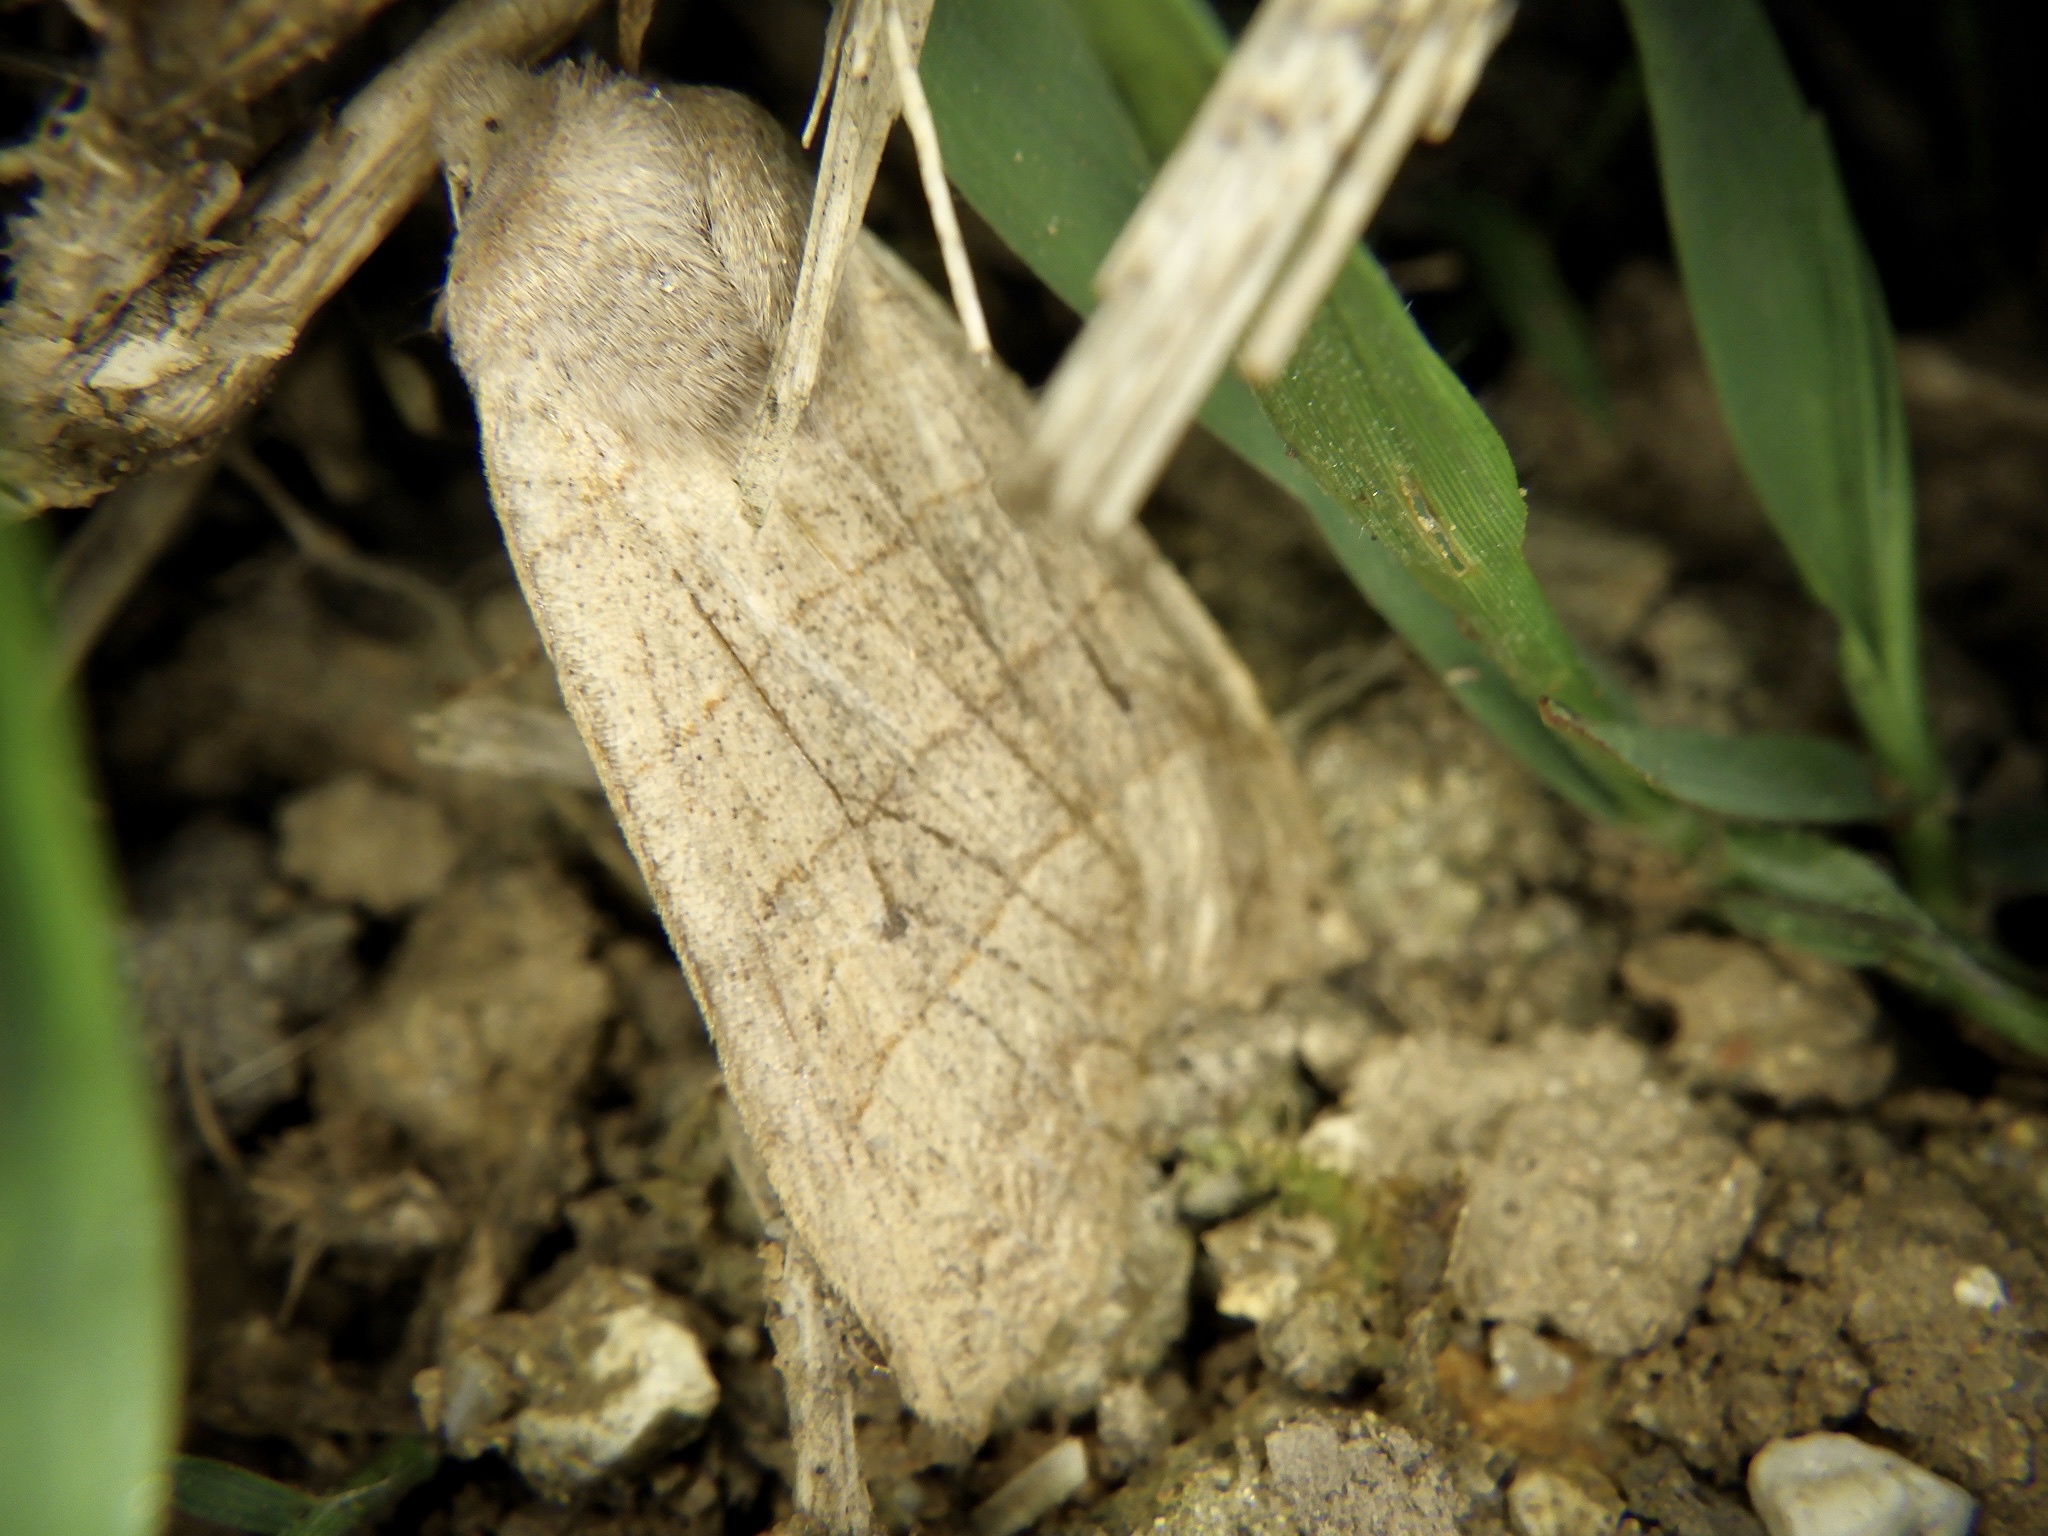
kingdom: Animalia
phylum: Arthropoda
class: Insecta
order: Lepidoptera
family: Noctuidae
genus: Eupsilia
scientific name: Eupsilia quadrilinea
